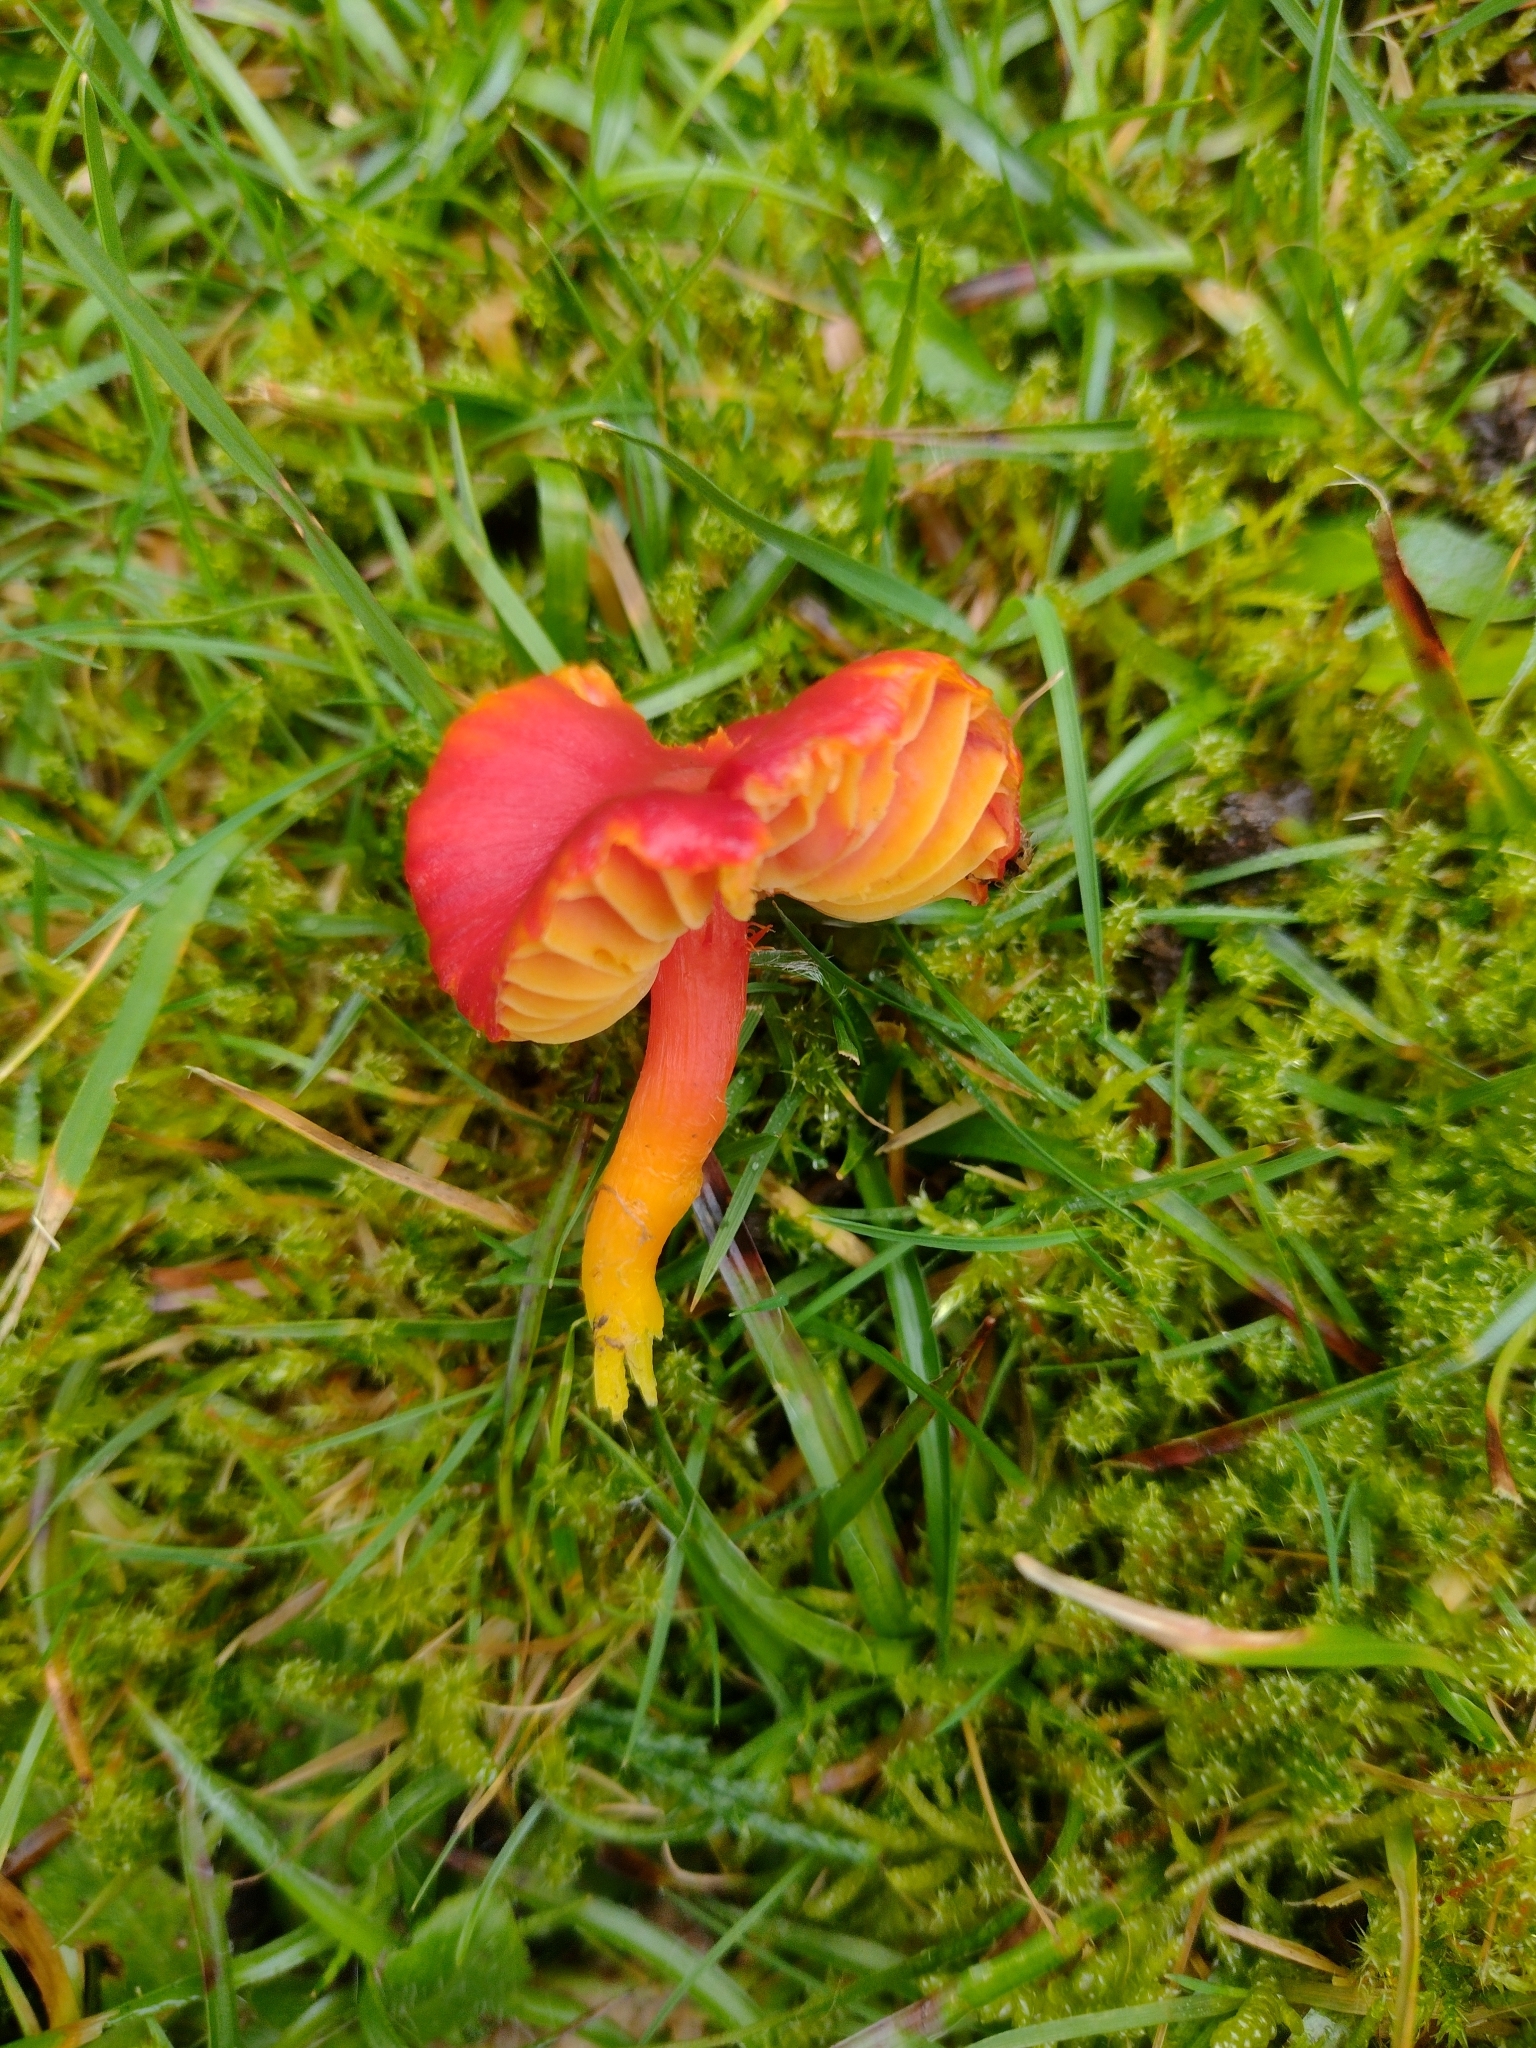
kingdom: Fungi
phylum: Basidiomycota
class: Agaricomycetes
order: Agaricales
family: Hygrophoraceae
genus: Hygrocybe
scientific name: Hygrocybe coccinea
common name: Scarlet hood
